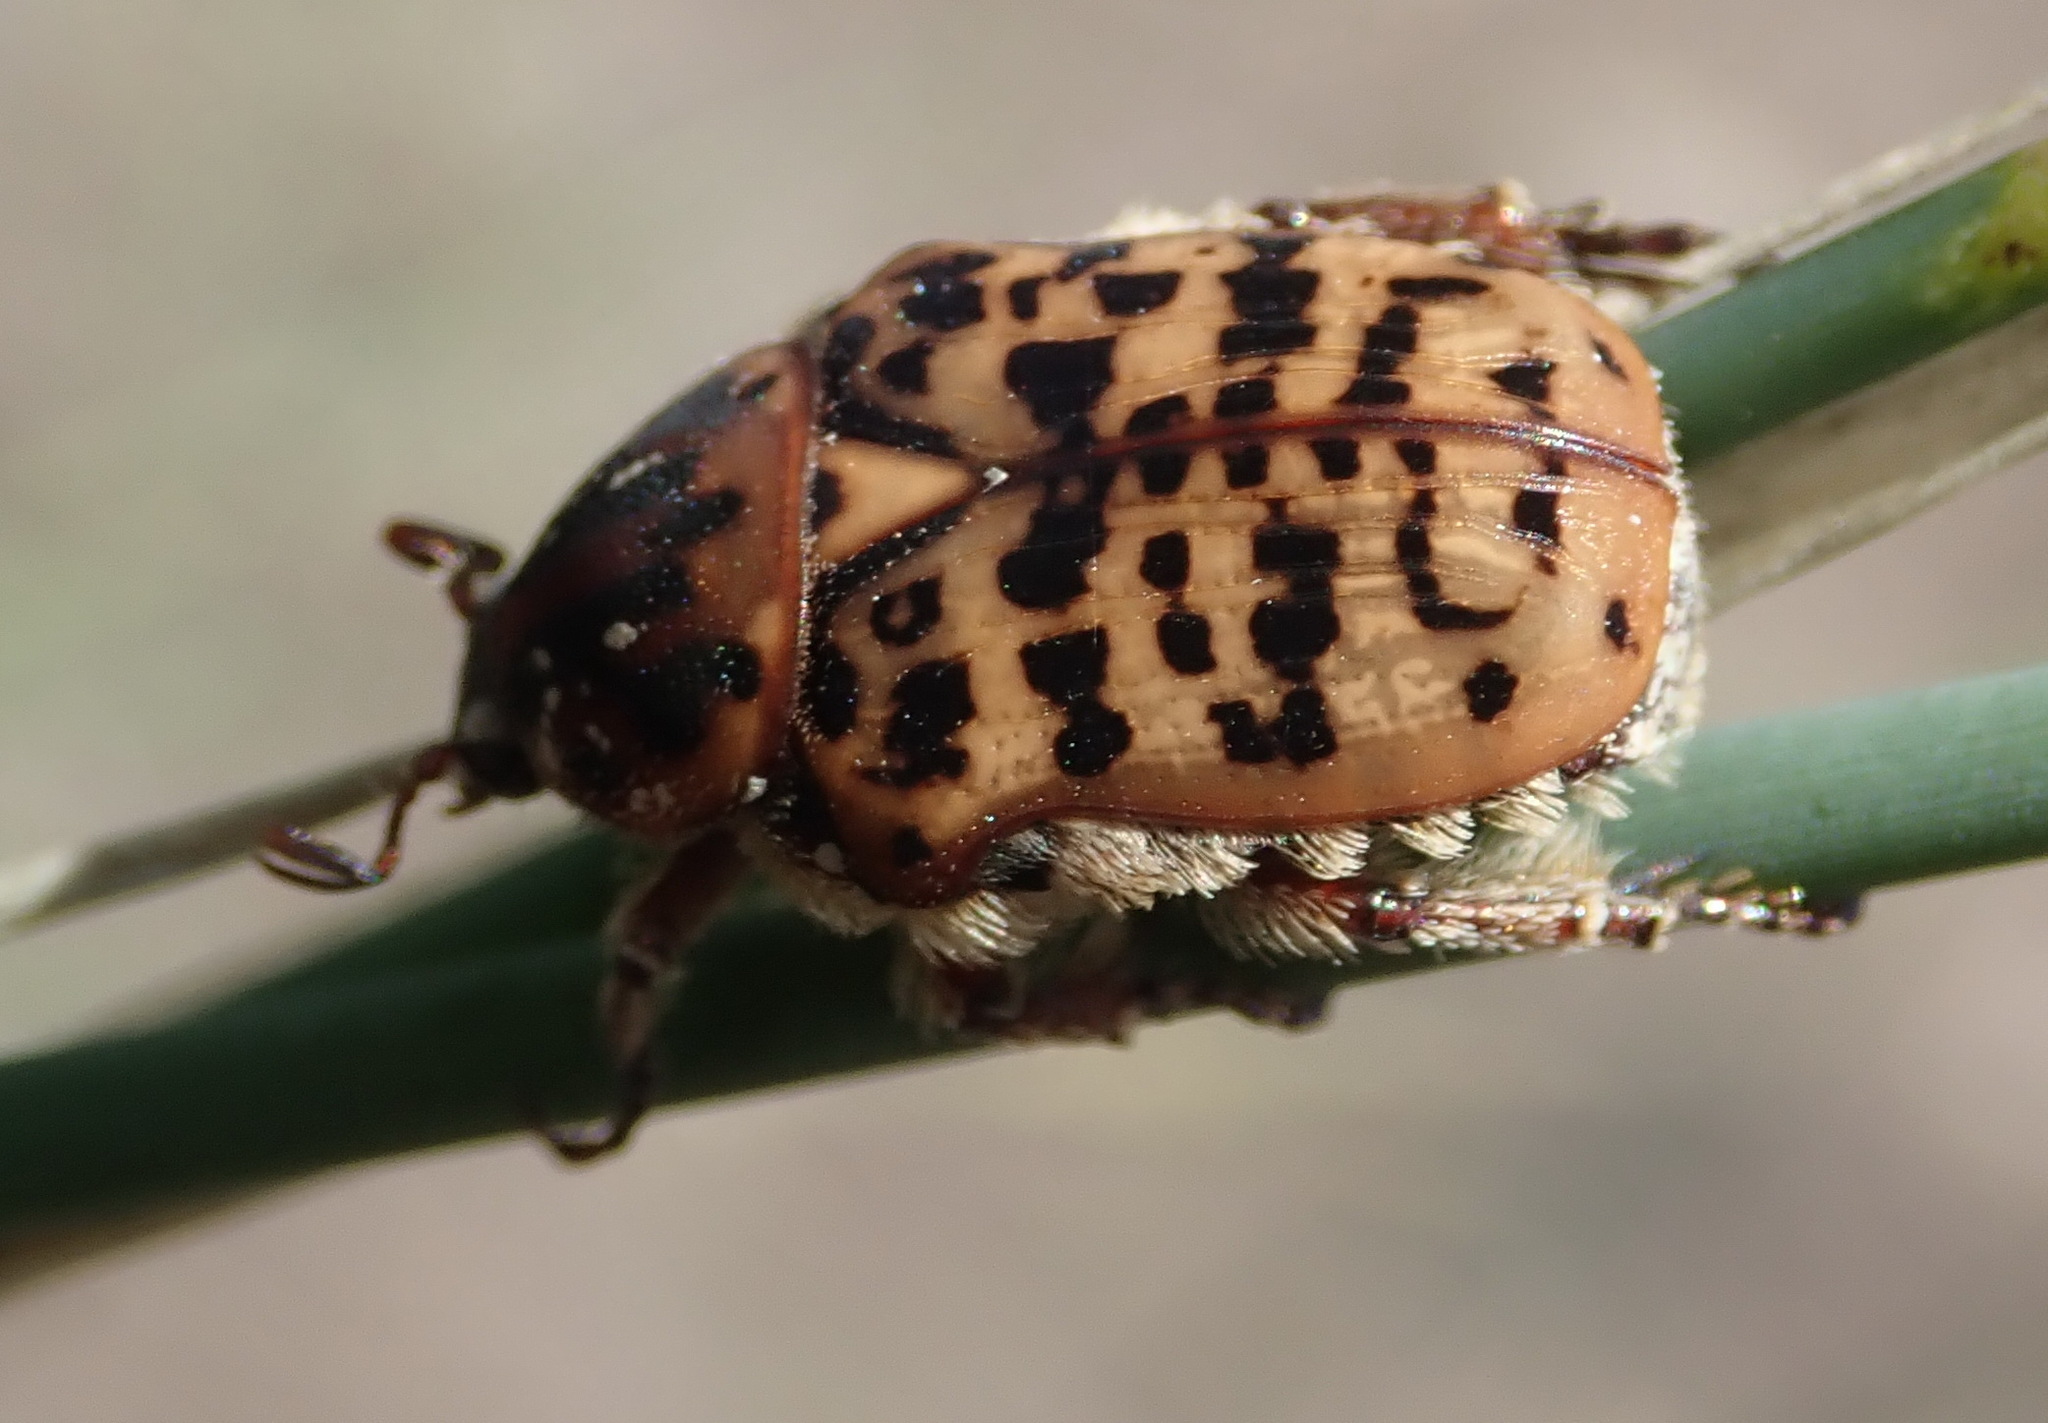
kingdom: Animalia
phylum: Arthropoda
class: Insecta
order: Coleoptera
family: Scarabaeidae
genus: Atrichelaphinis
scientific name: Atrichelaphinis tigrina
